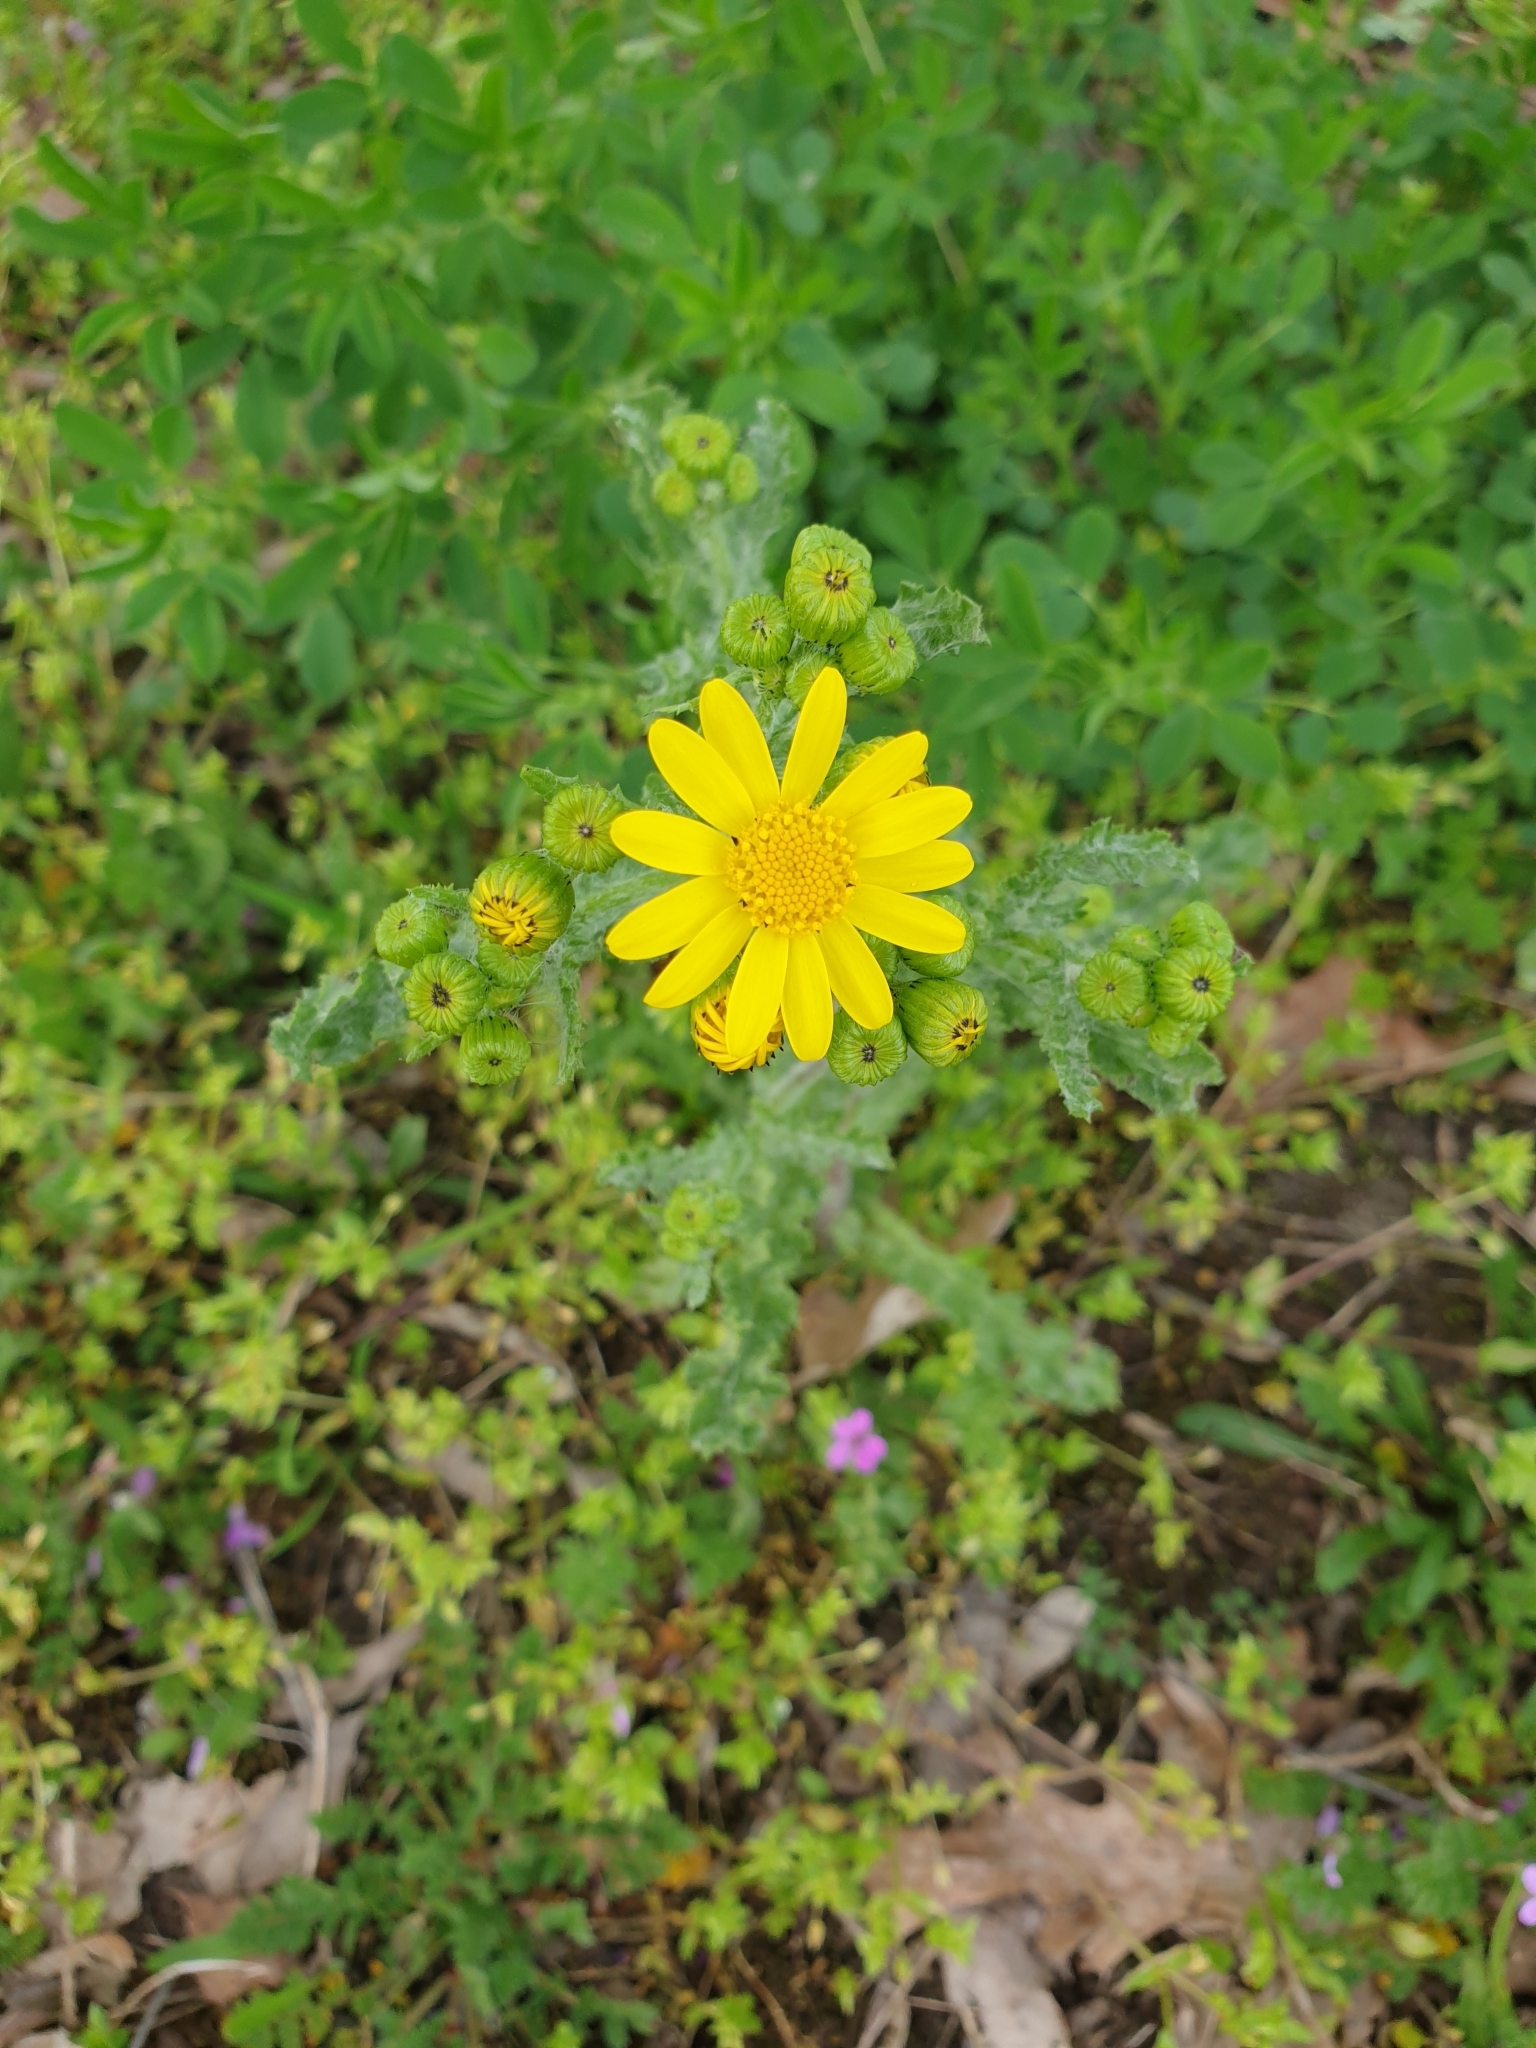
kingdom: Plantae
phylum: Tracheophyta
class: Magnoliopsida
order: Asterales
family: Asteraceae
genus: Senecio
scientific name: Senecio vernalis
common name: Eastern groundsel
